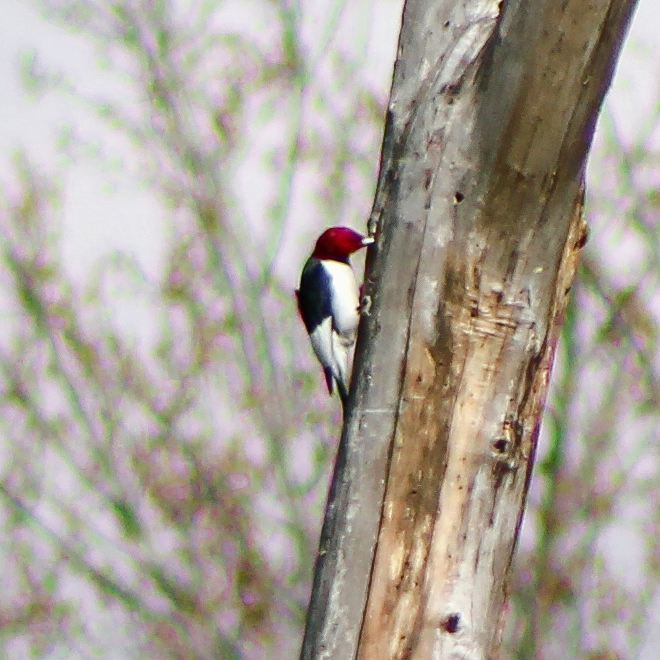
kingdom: Animalia
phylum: Chordata
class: Aves
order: Piciformes
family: Picidae
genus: Melanerpes
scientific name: Melanerpes erythrocephalus
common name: Red-headed woodpecker
